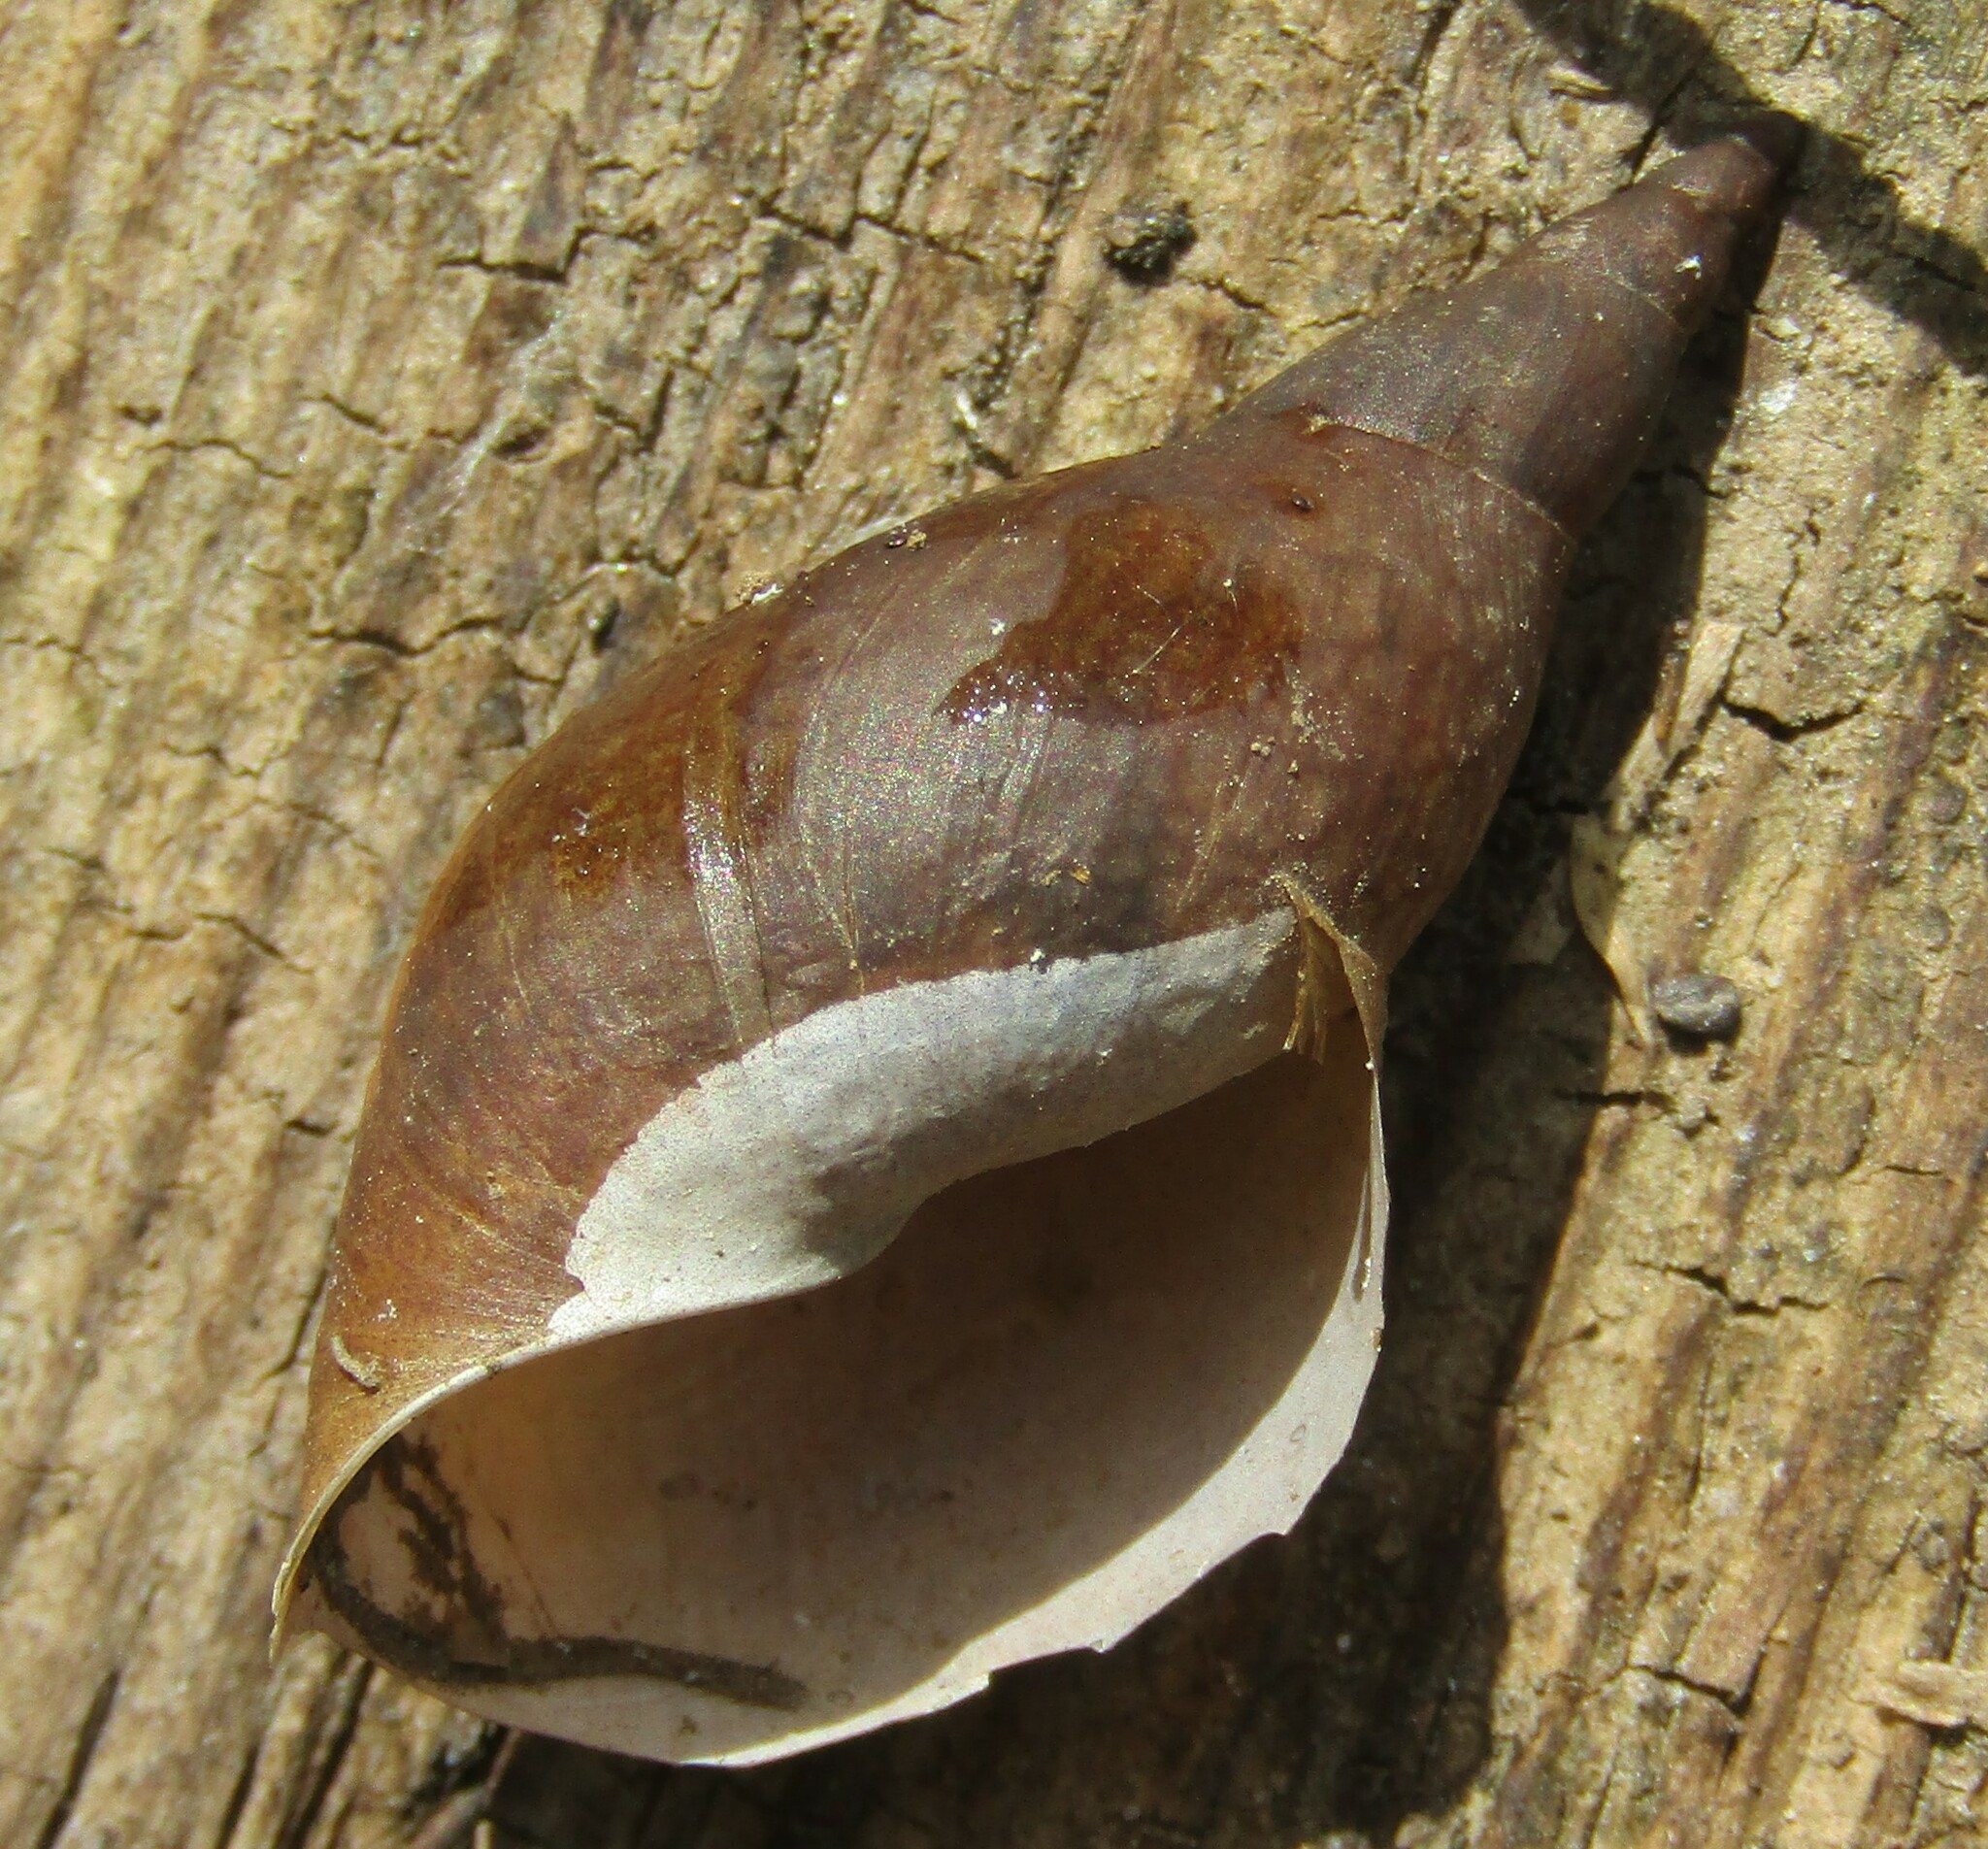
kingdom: Animalia
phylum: Mollusca
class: Gastropoda
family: Lymnaeidae
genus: Lymnaea
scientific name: Lymnaea stagnalis
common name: Great pond snail
